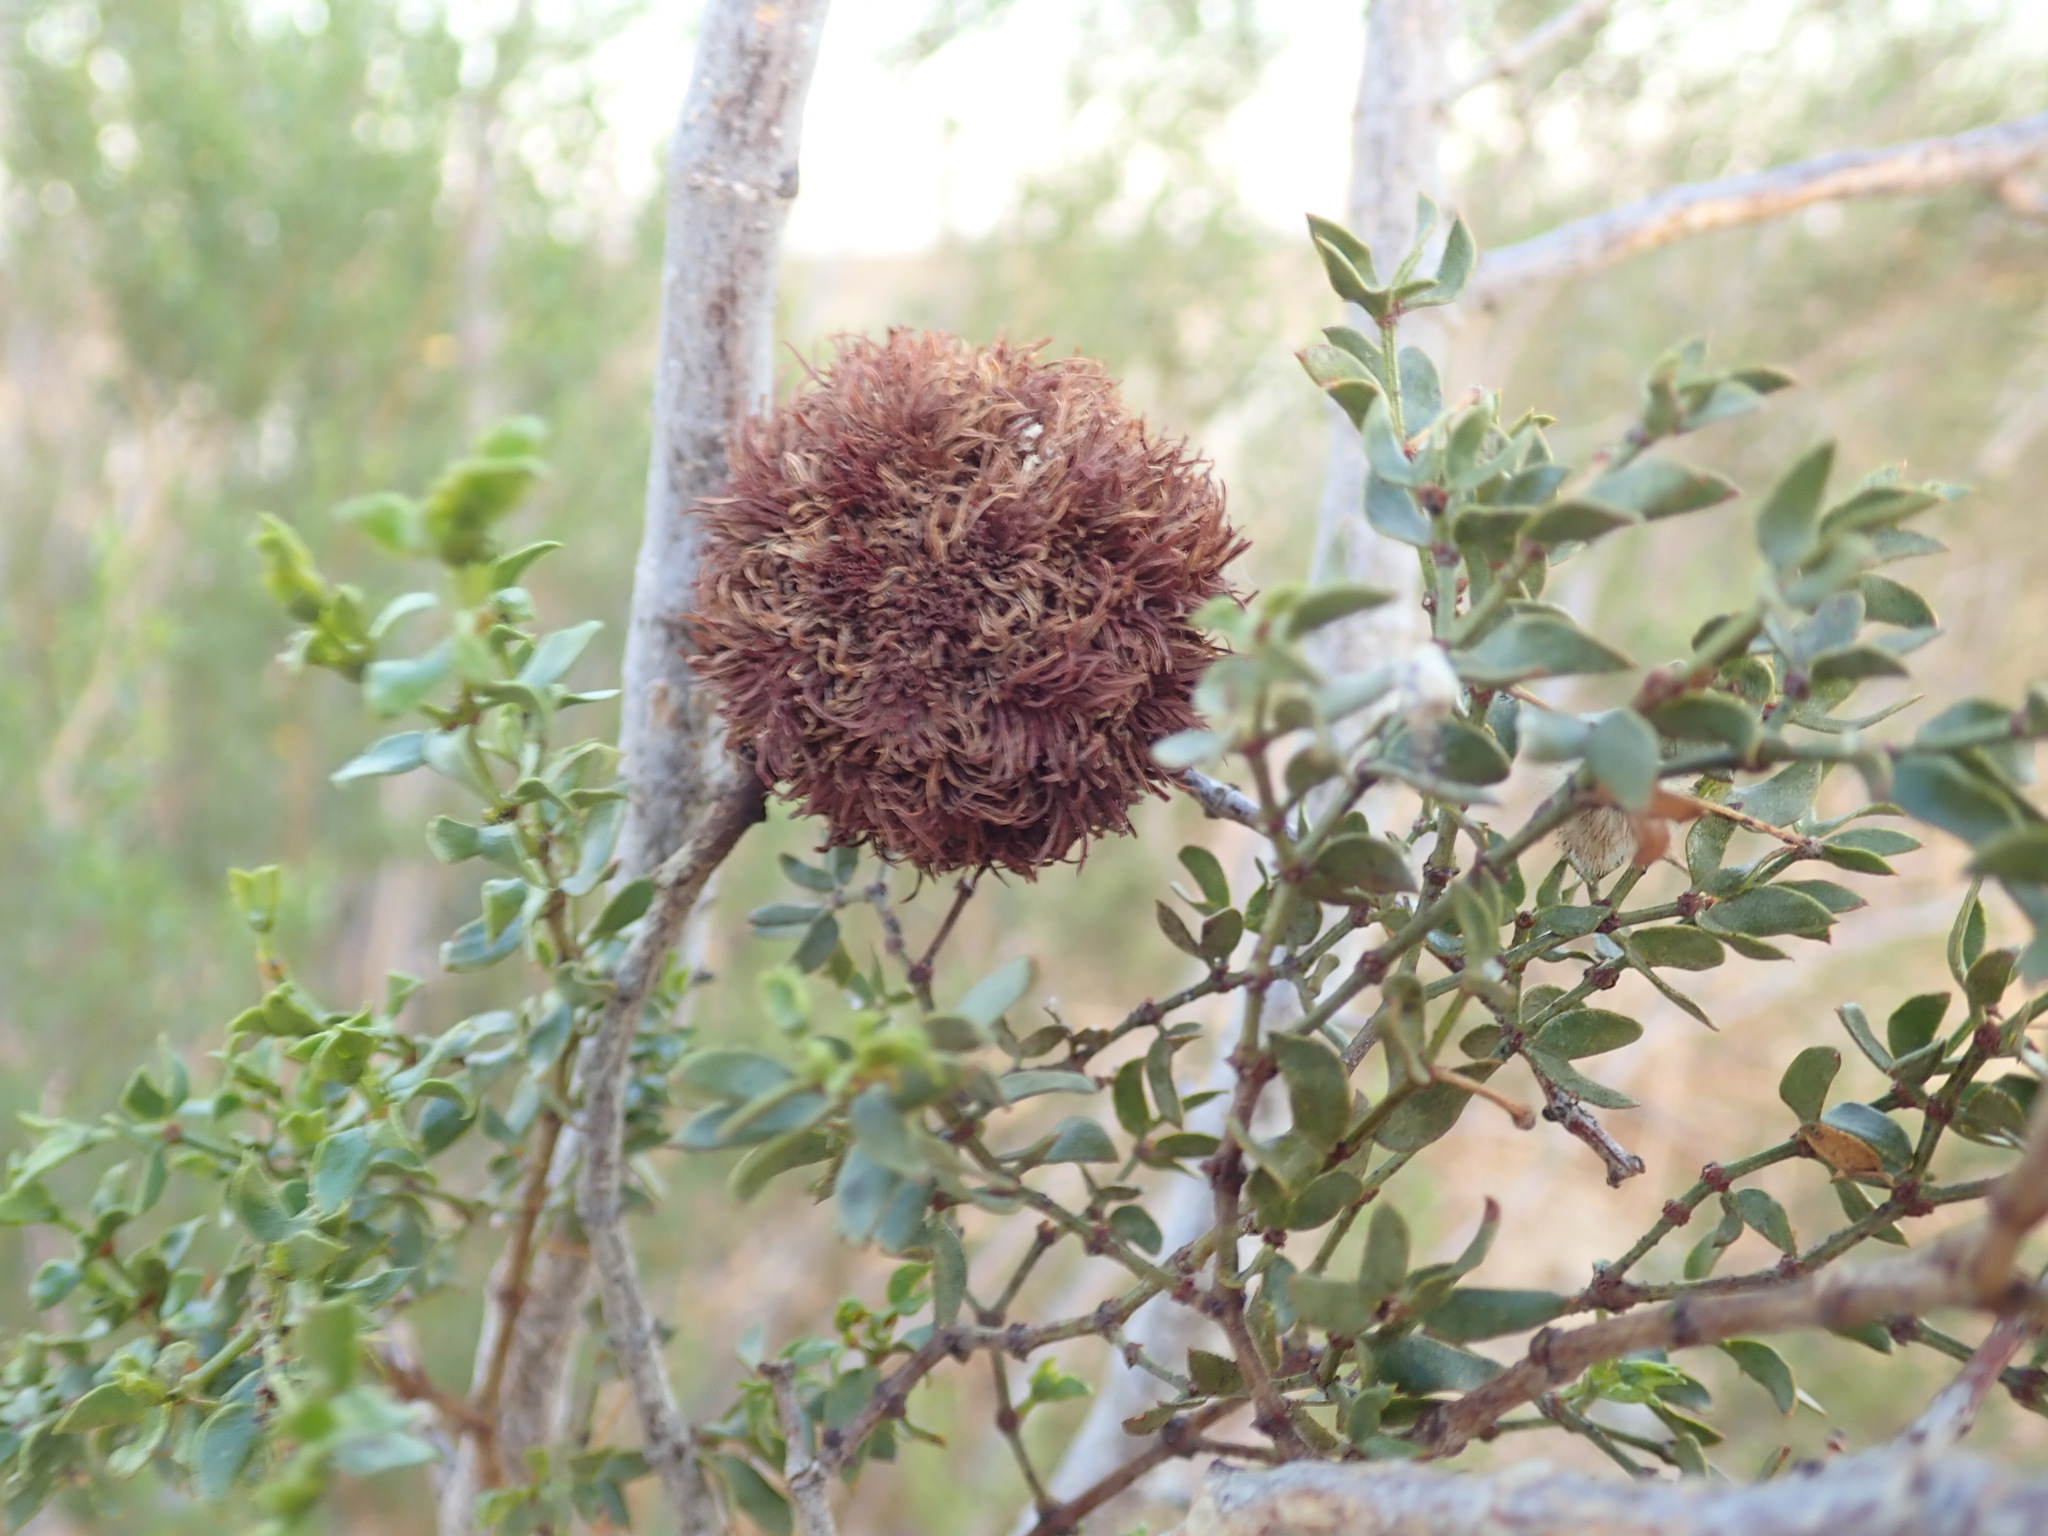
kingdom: Animalia
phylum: Arthropoda
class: Insecta
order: Diptera
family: Cecidomyiidae
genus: Asphondylia
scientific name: Asphondylia auripila
